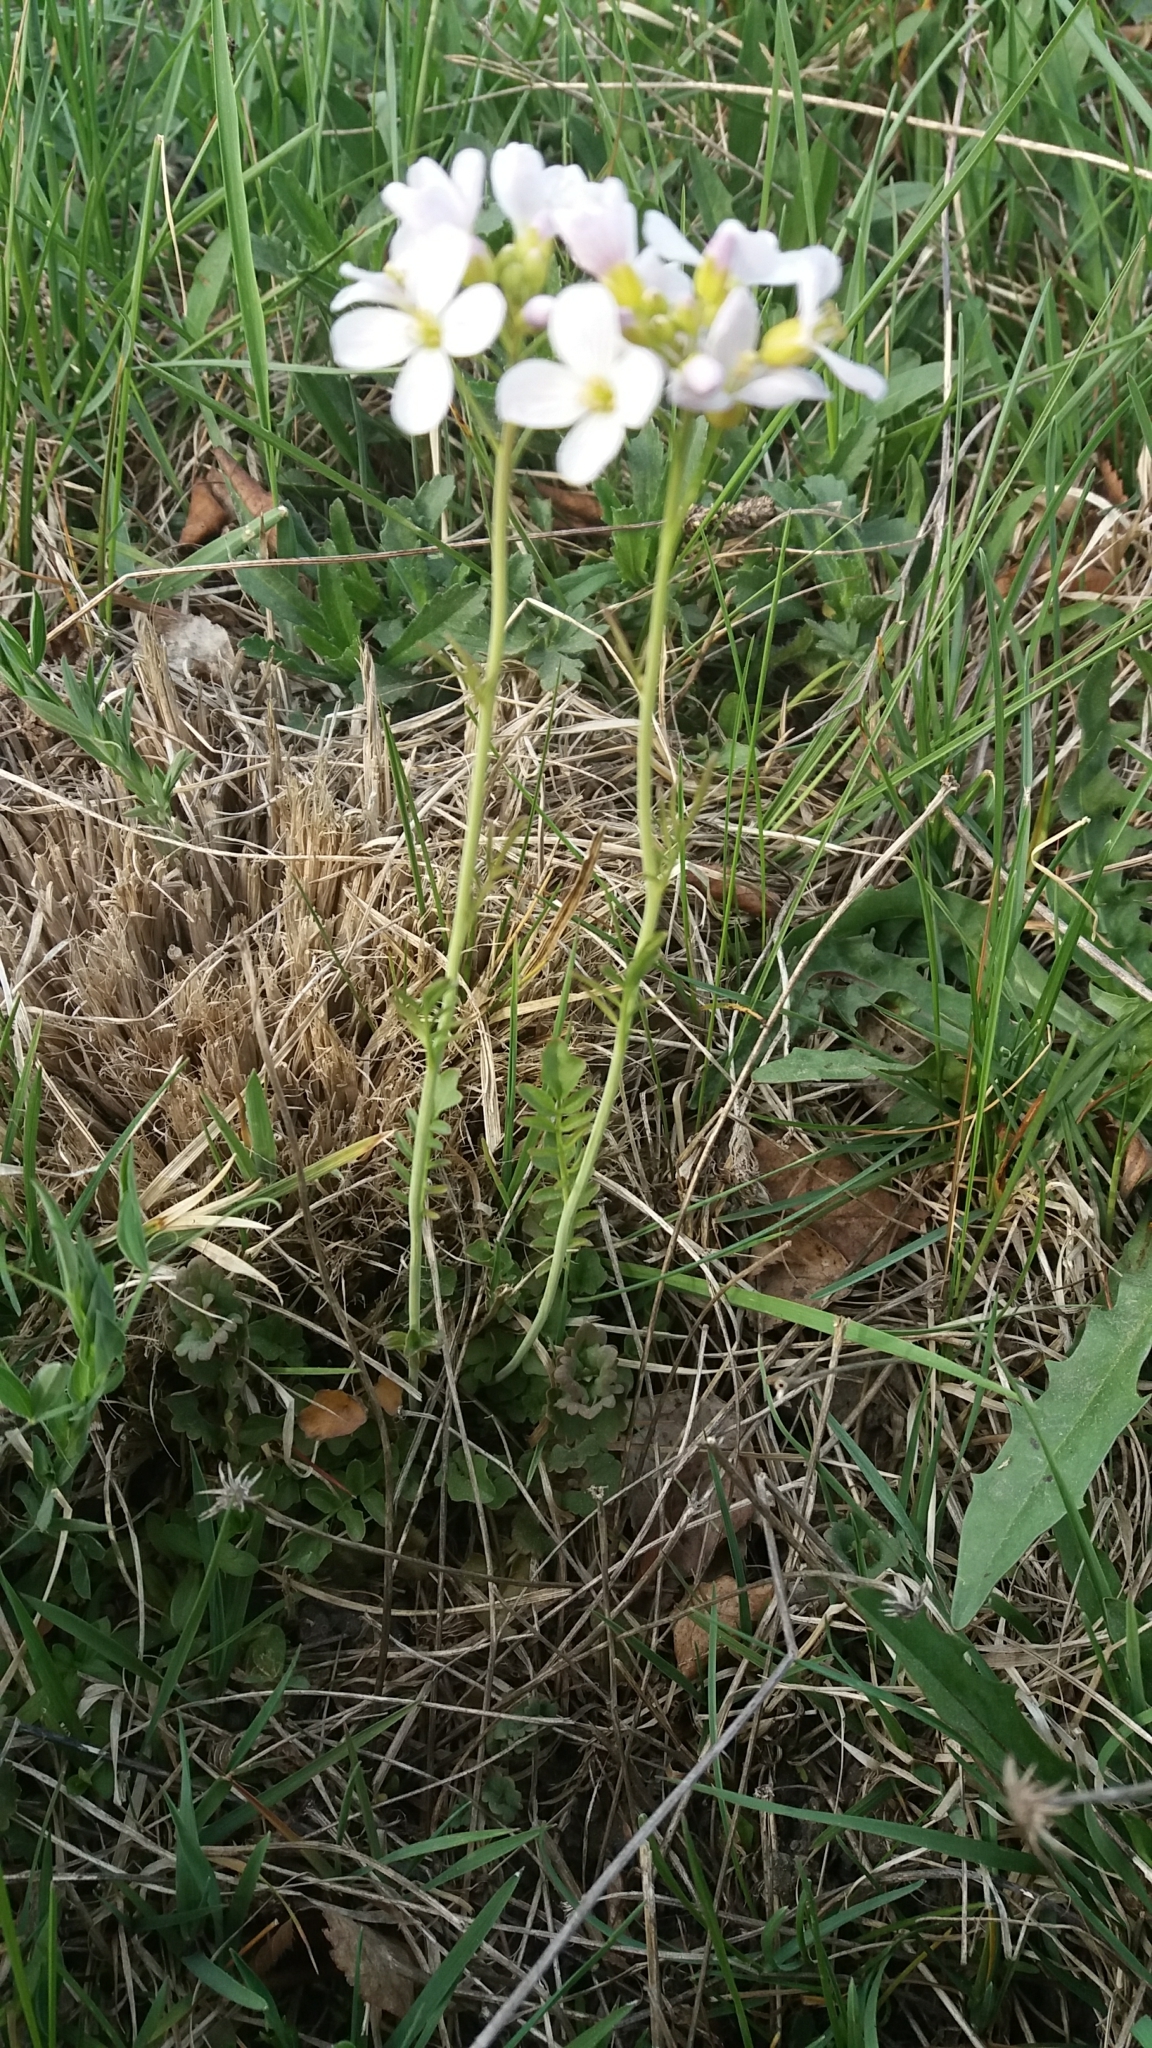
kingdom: Plantae
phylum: Tracheophyta
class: Magnoliopsida
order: Brassicales
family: Brassicaceae
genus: Cardamine
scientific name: Cardamine pratensis
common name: Cuckoo flower
